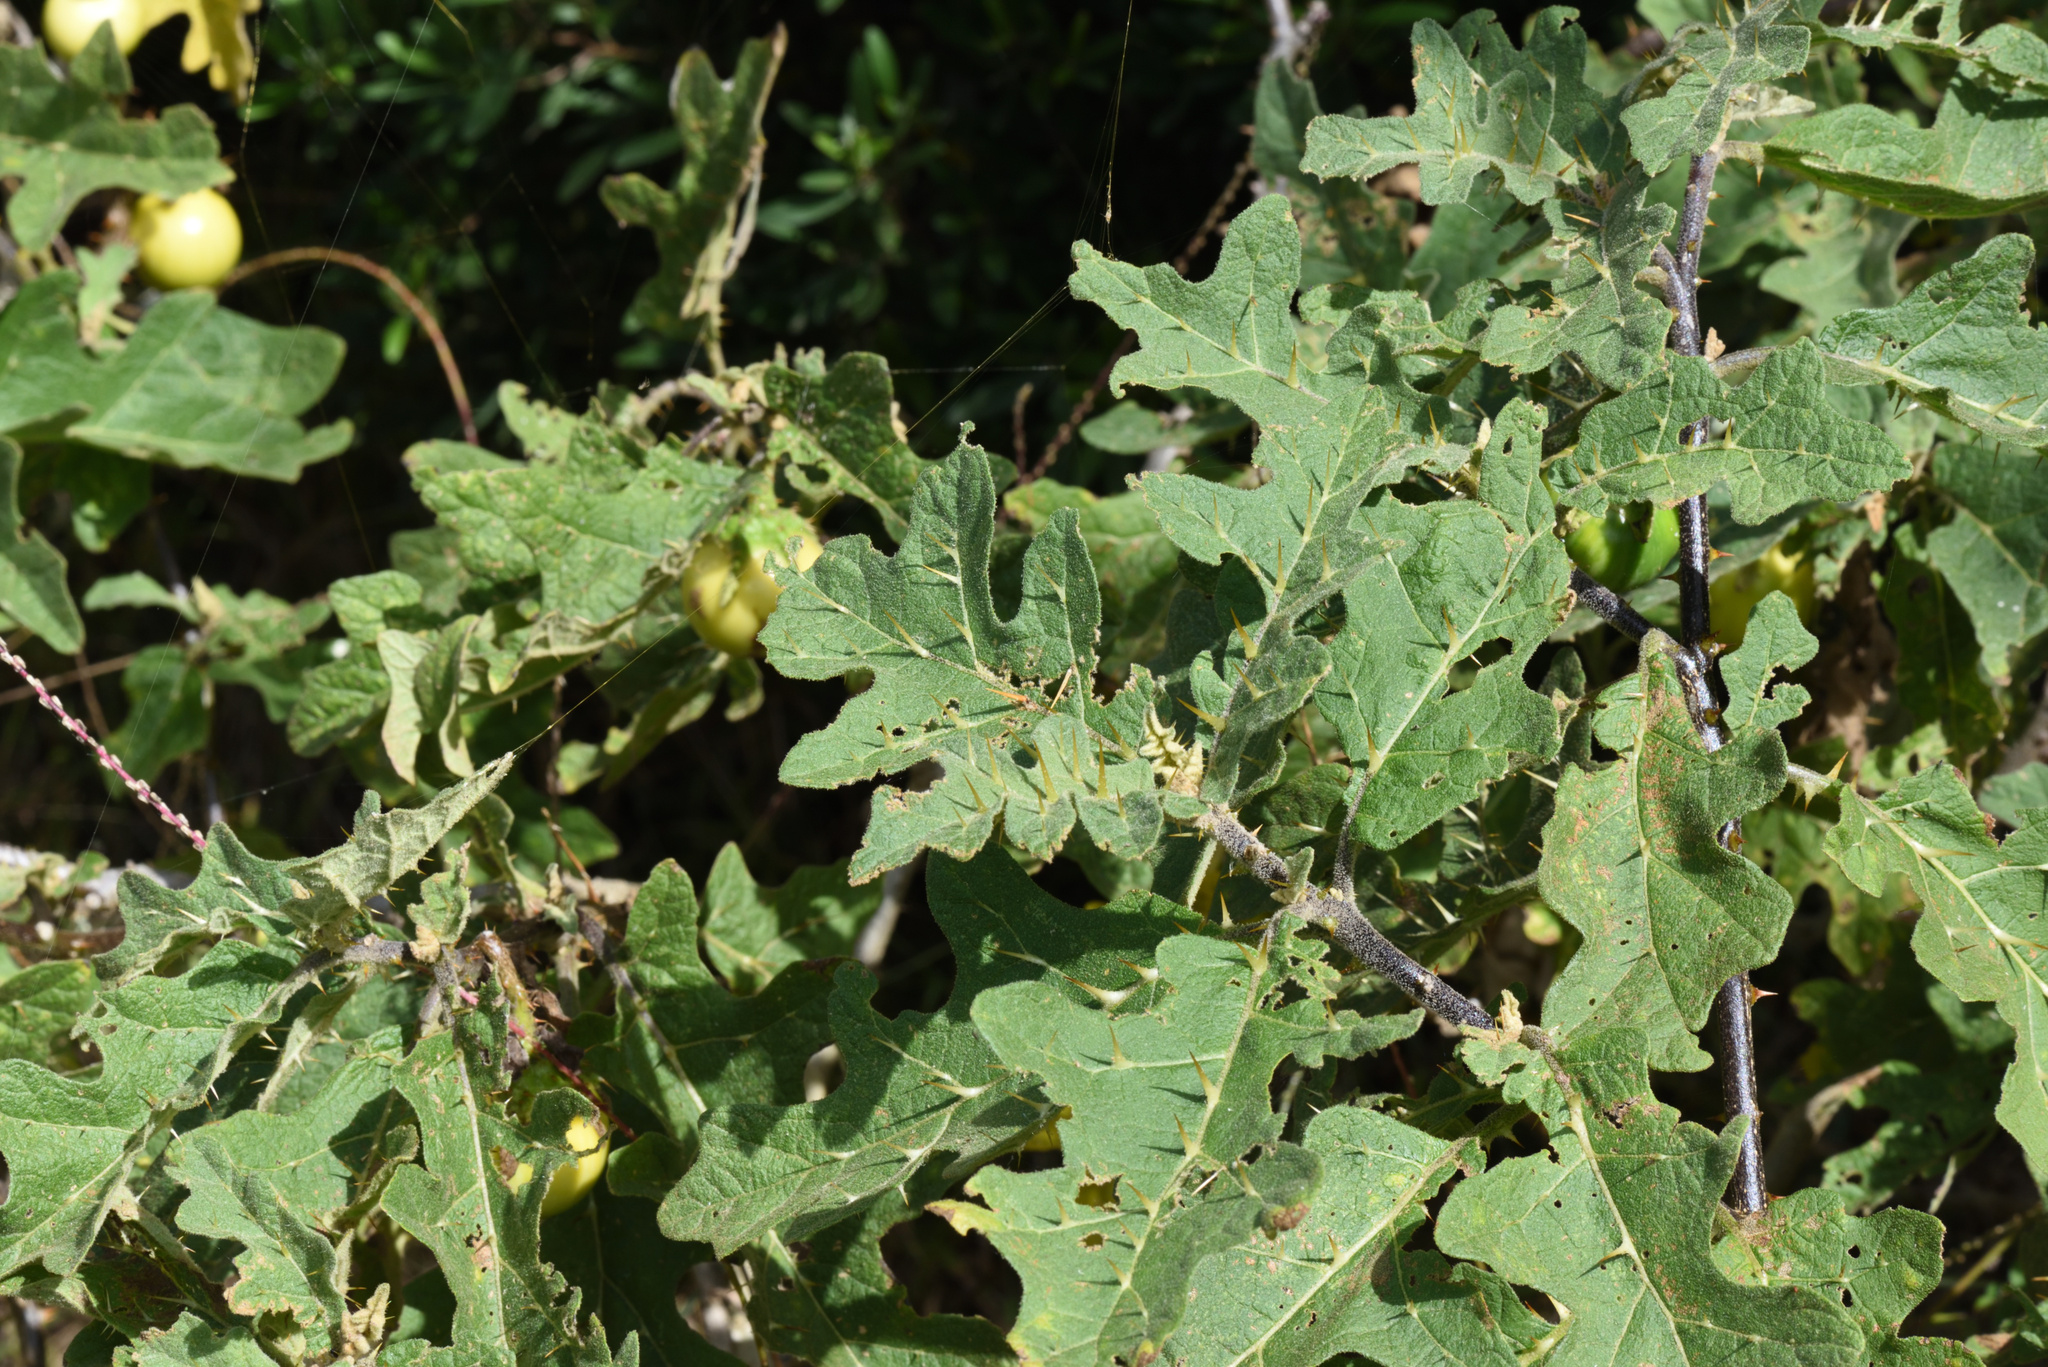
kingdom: Plantae
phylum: Tracheophyta
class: Magnoliopsida
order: Solanales
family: Solanaceae
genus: Solanum
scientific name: Solanum umtuma
